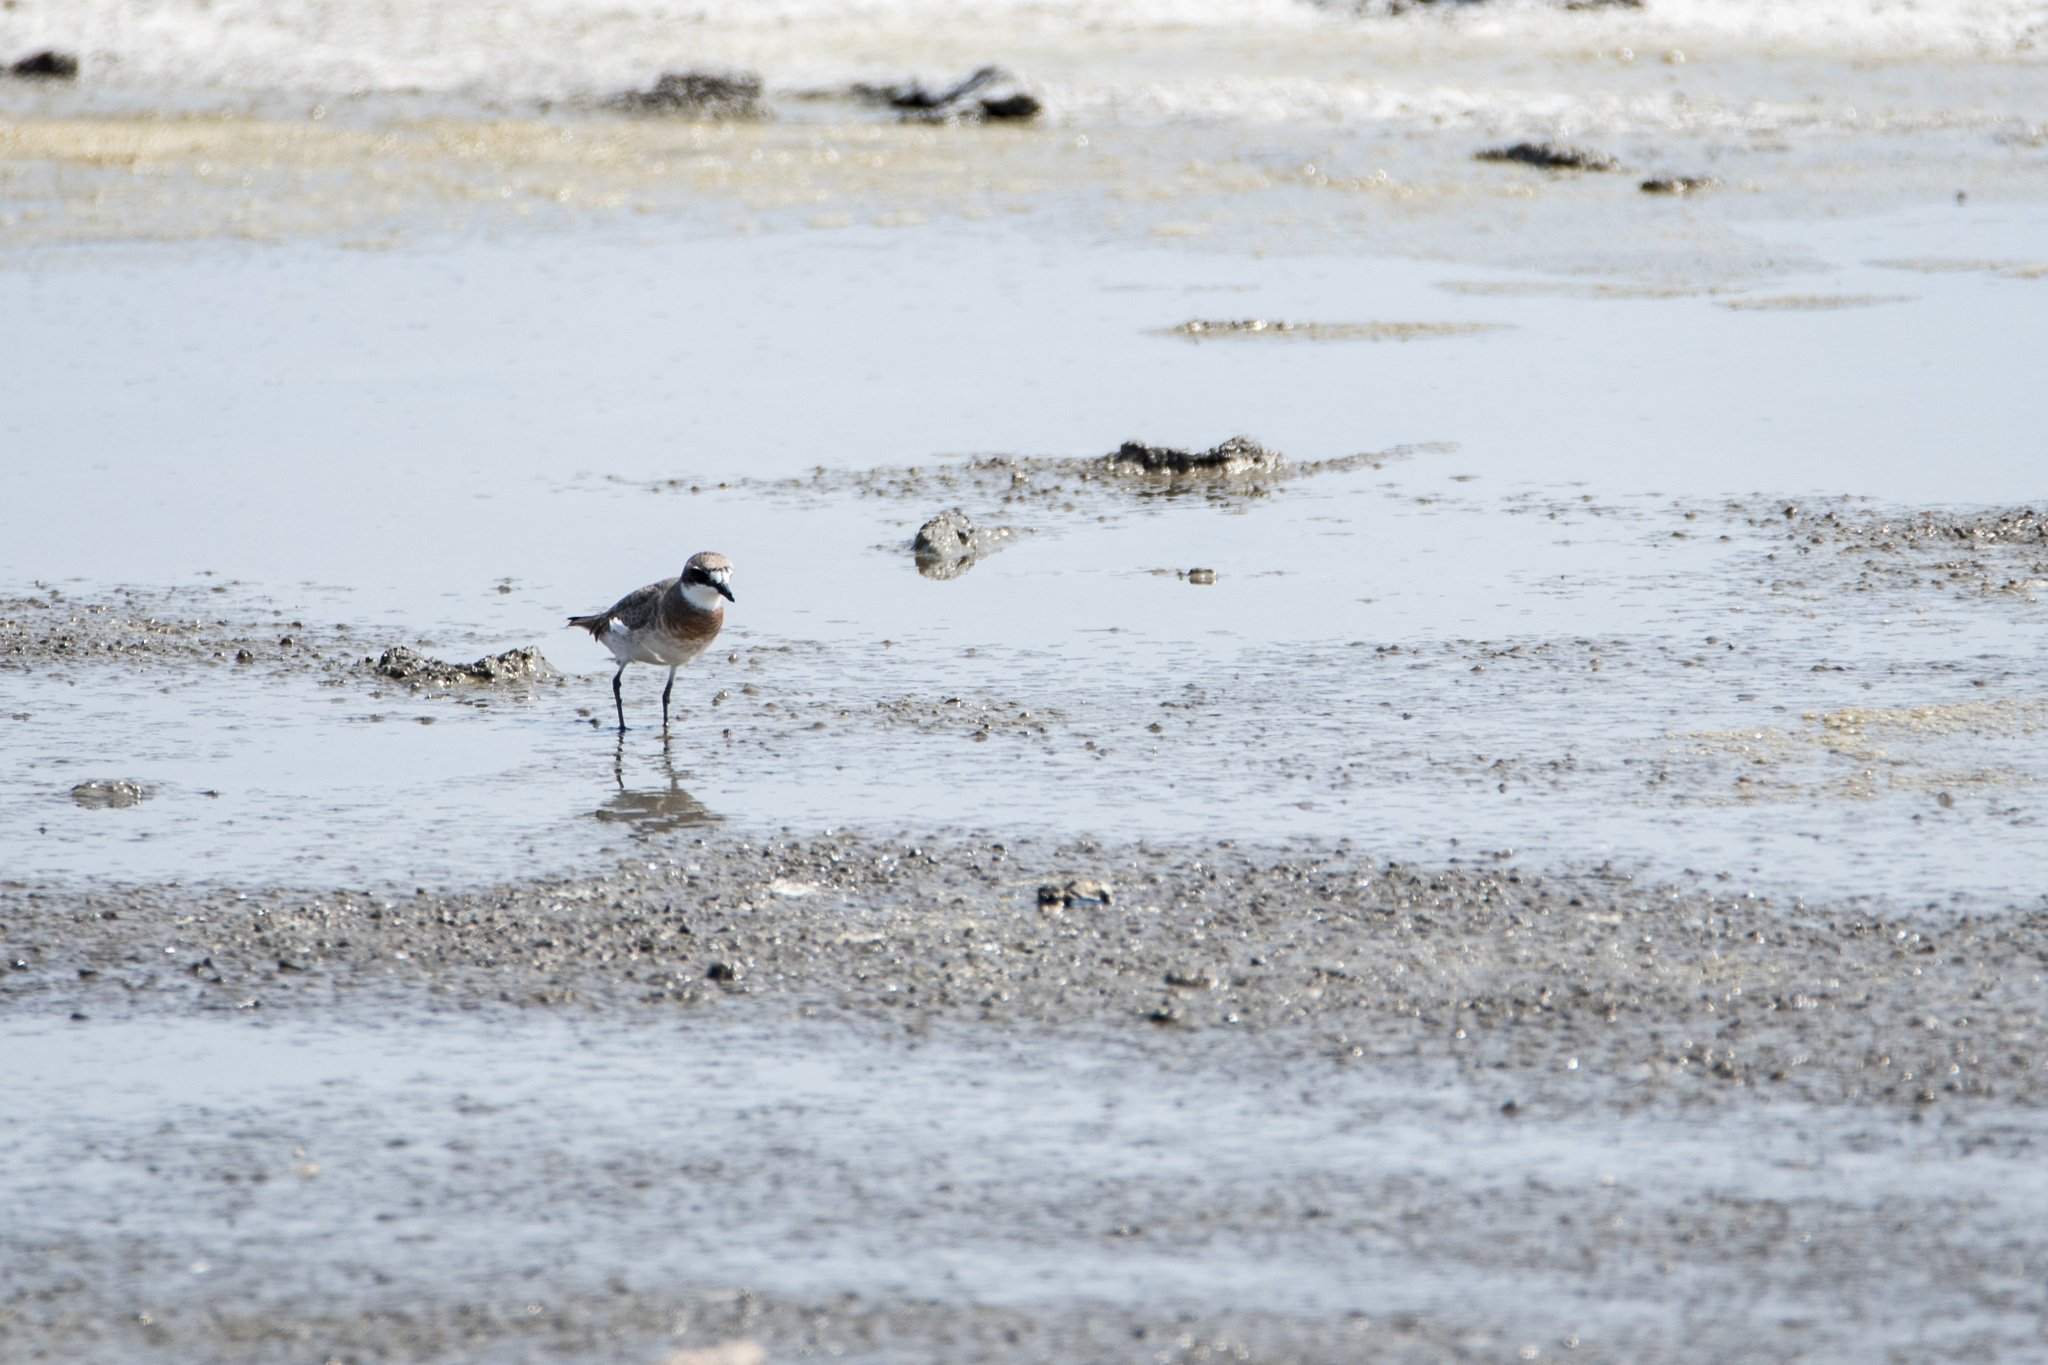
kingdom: Animalia
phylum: Chordata
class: Aves
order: Charadriiformes
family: Charadriidae
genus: Charadrius
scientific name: Charadrius leschenaultii
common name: Greater sand plover
